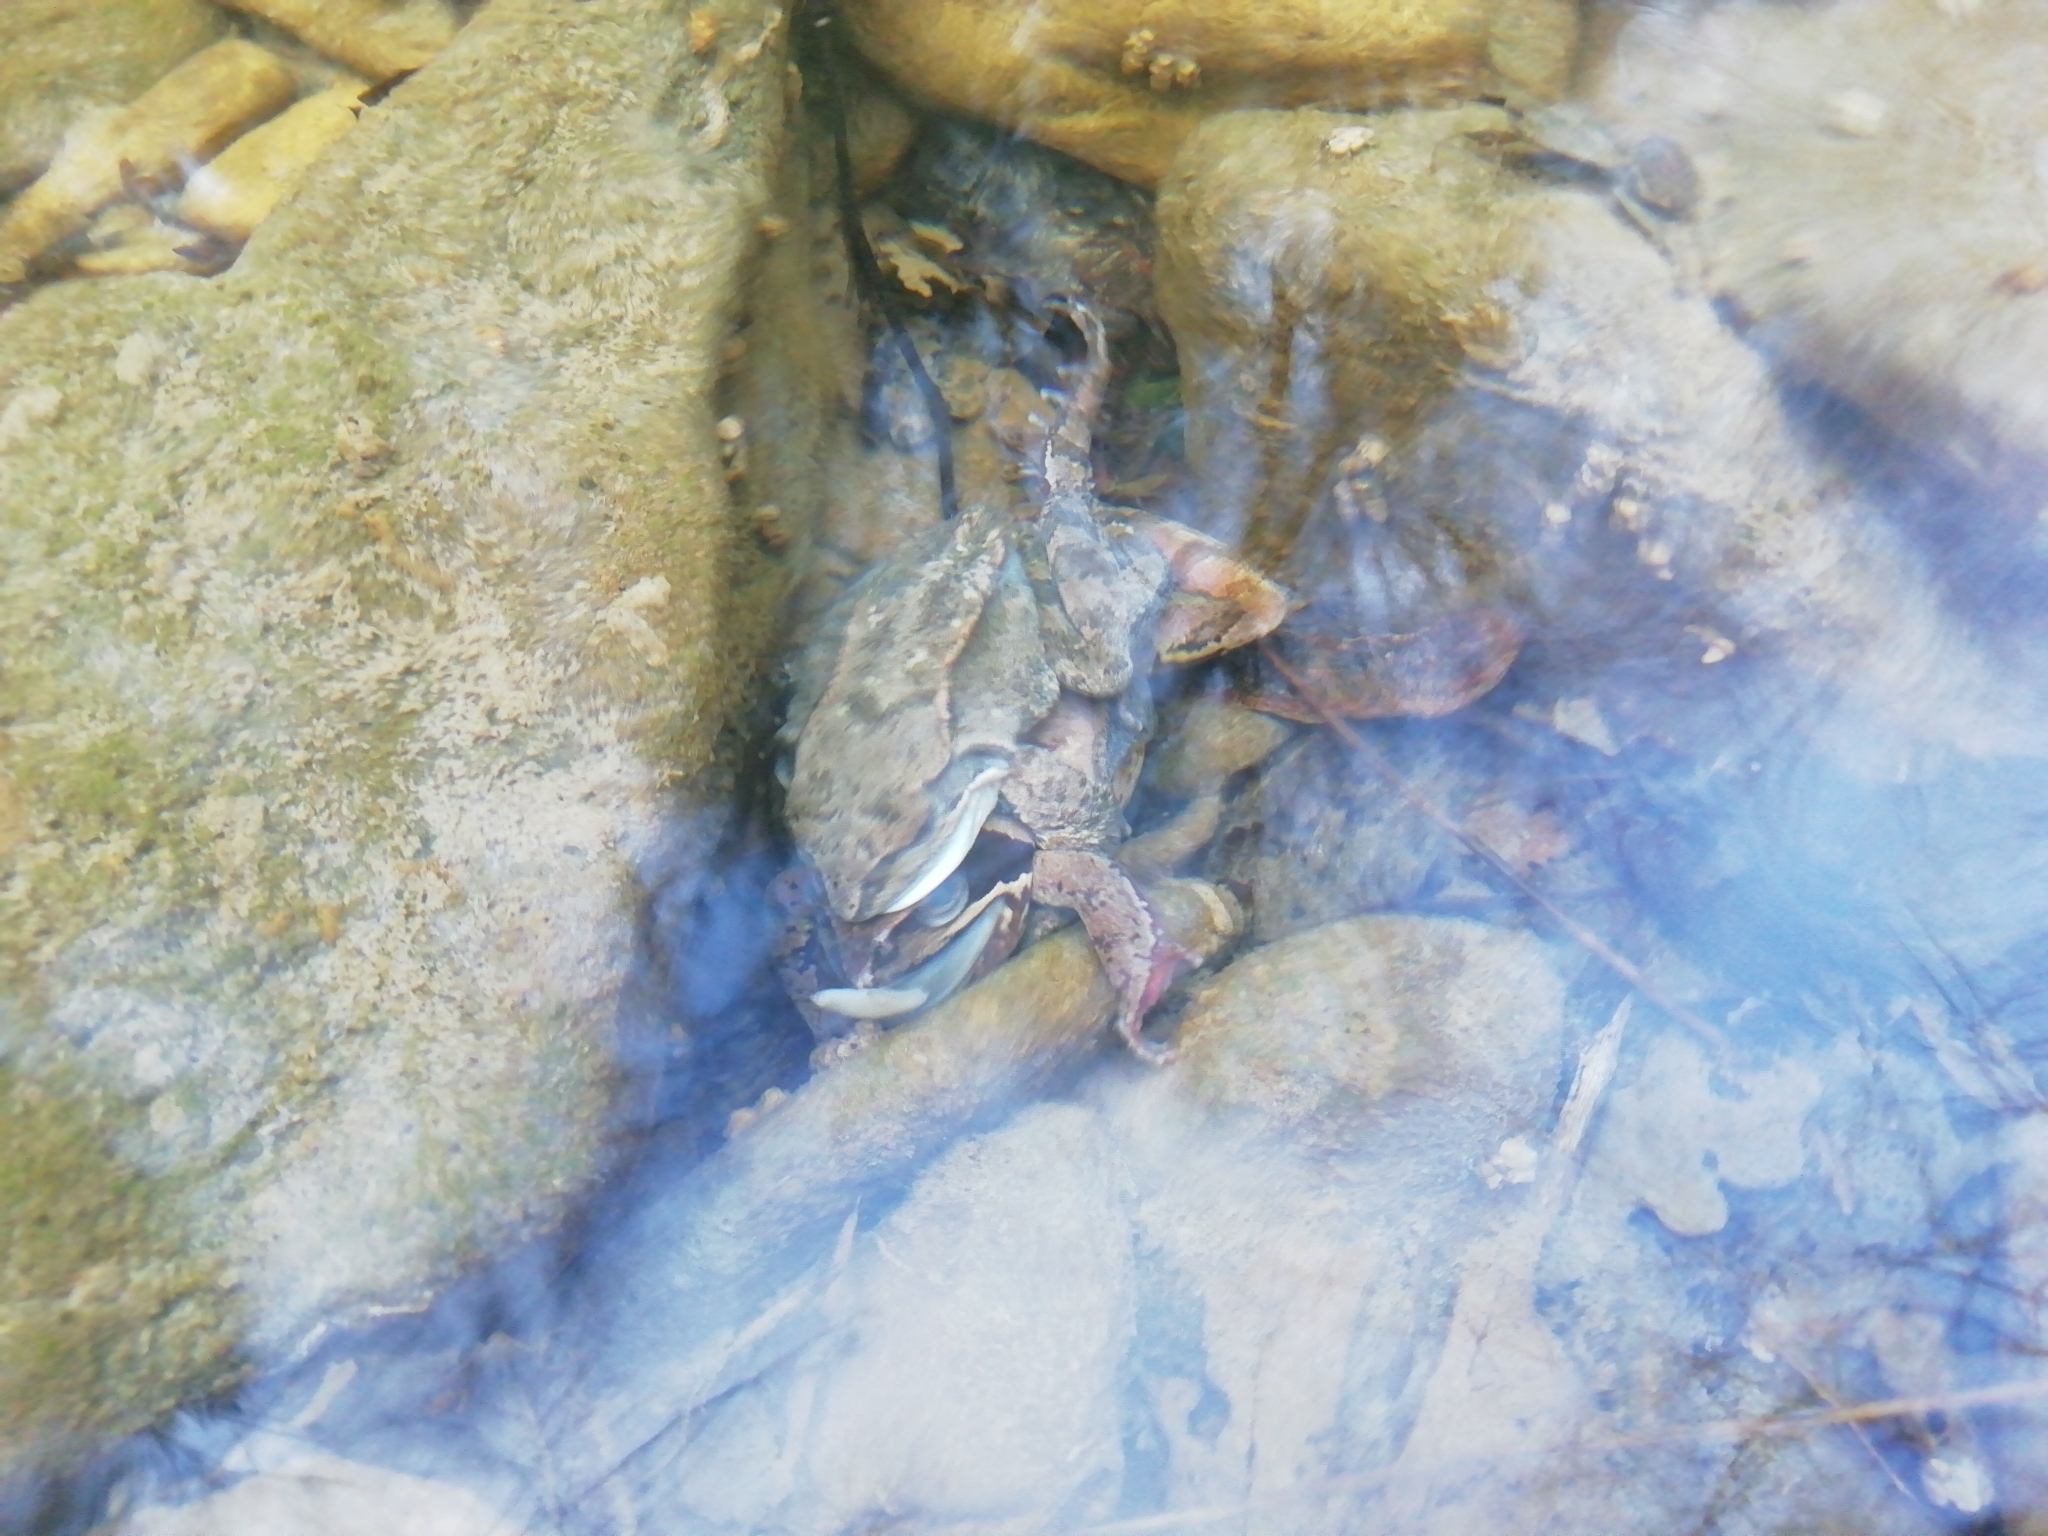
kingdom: Animalia
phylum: Chordata
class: Amphibia
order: Anura
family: Ranidae
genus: Rana
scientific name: Rana temporaria
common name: Common frog
